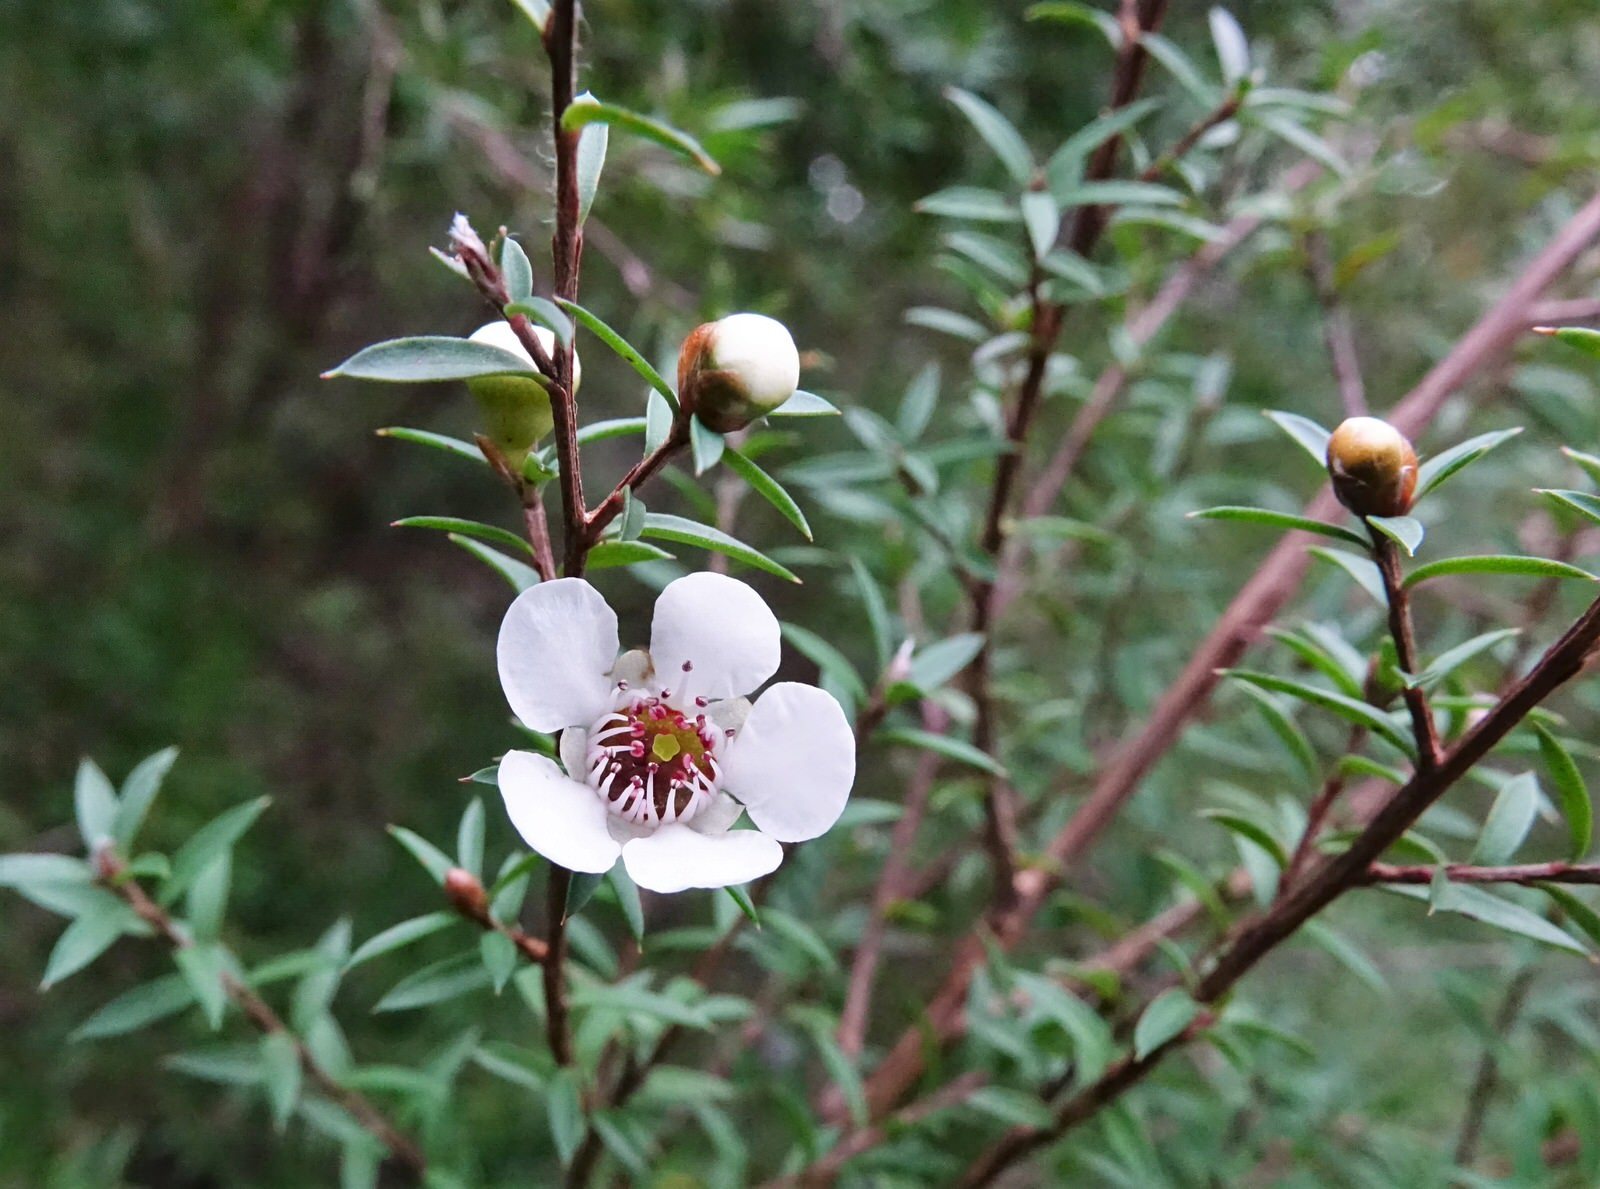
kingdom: Plantae
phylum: Tracheophyta
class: Magnoliopsida
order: Myrtales
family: Myrtaceae
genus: Leptospermum
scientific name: Leptospermum scoparium
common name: Broom tea-tree
